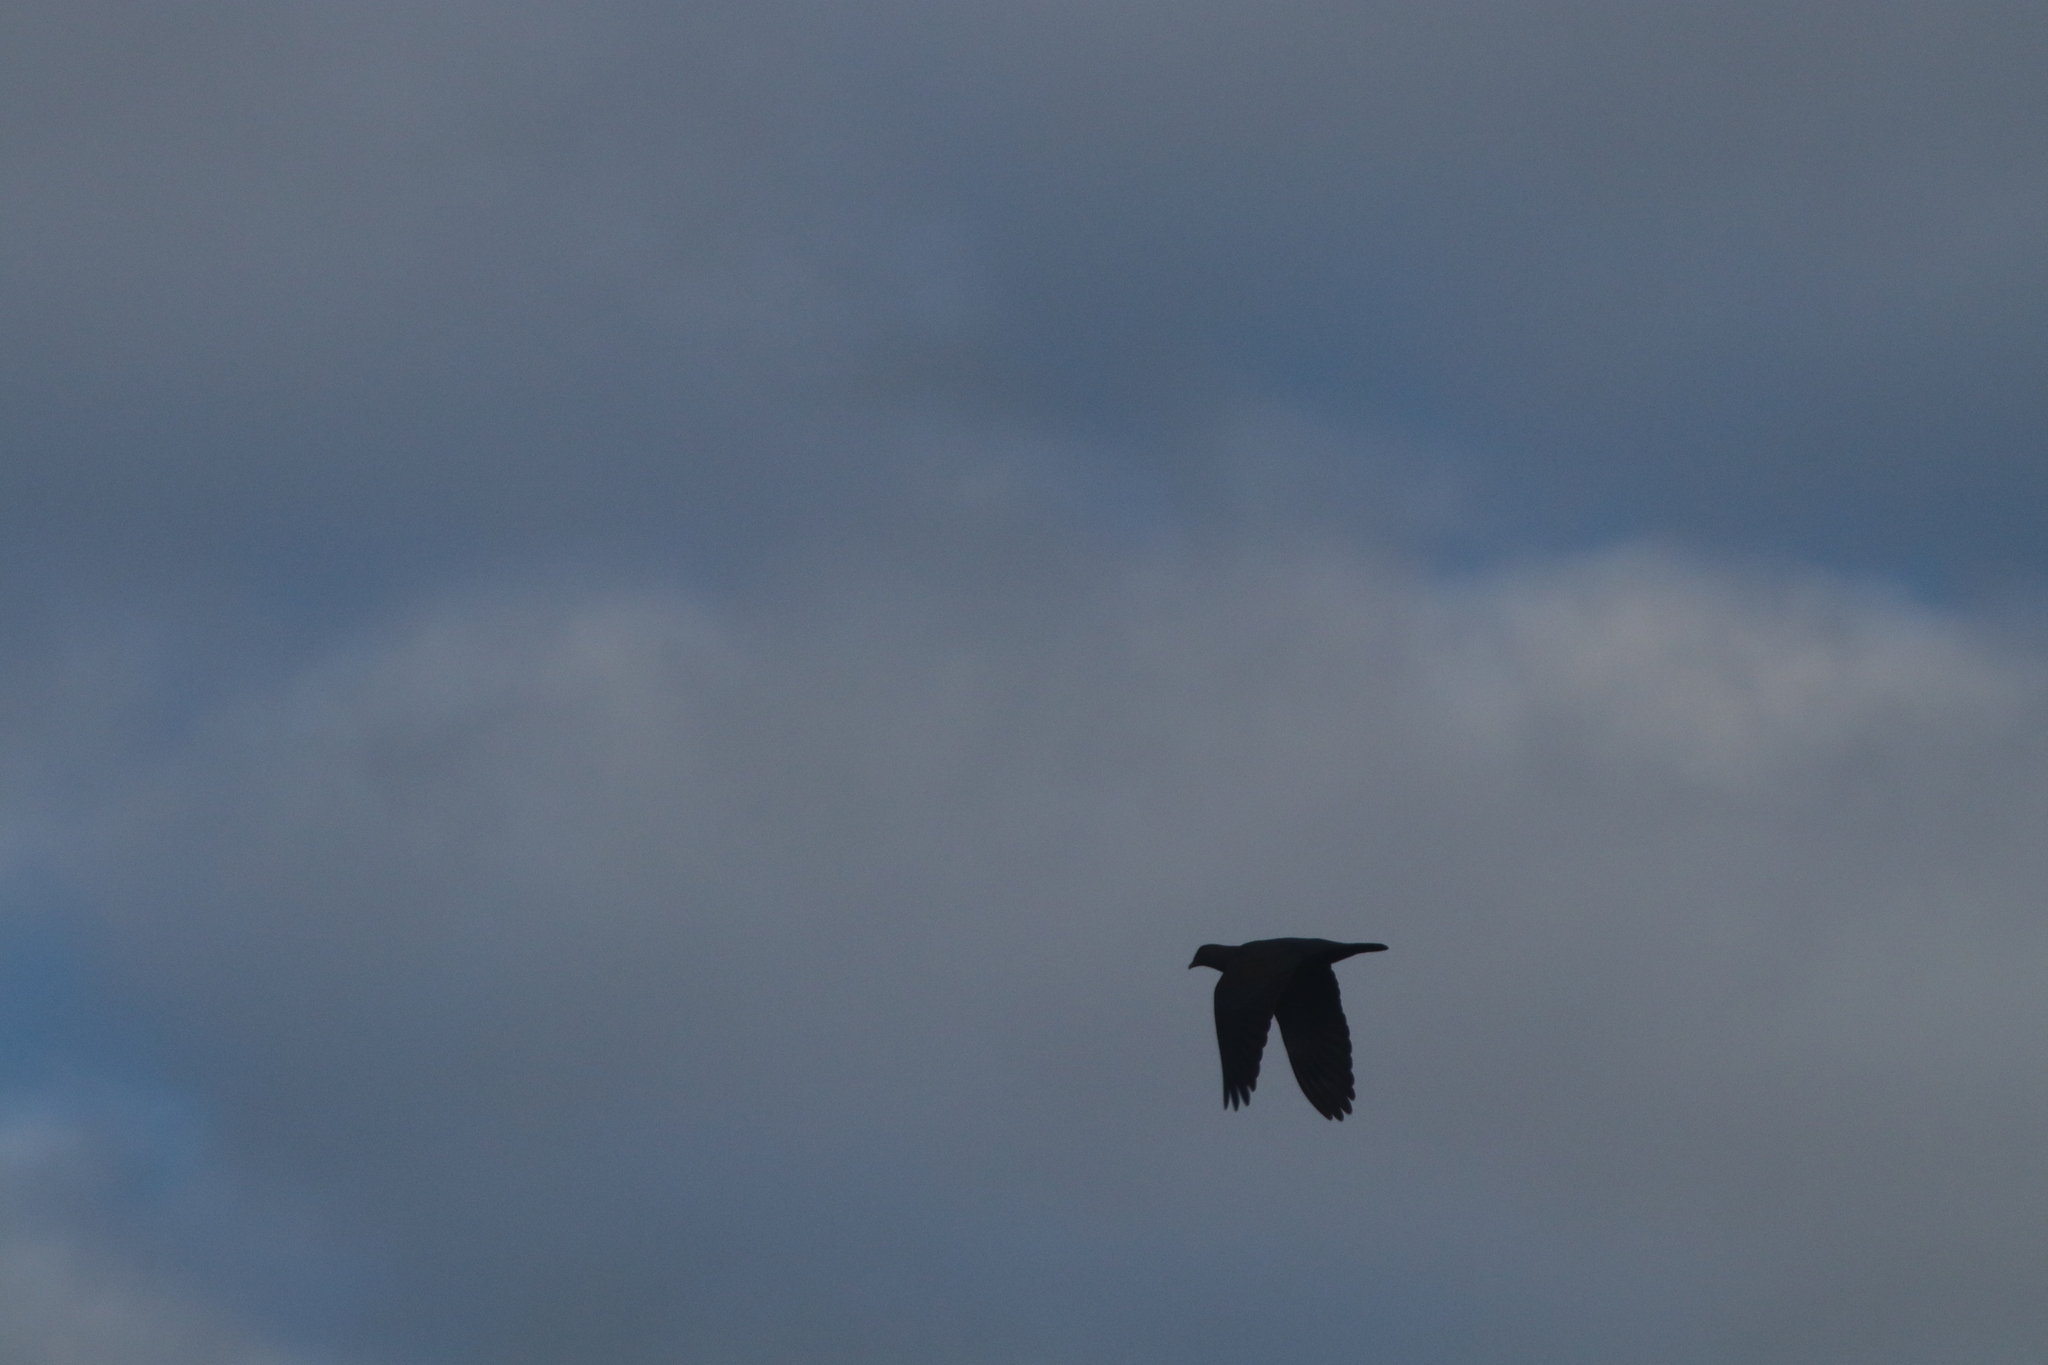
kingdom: Animalia
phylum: Chordata
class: Aves
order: Columbiformes
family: Columbidae
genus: Patagioenas
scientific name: Patagioenas flavirostris
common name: Red-billed pigeon
